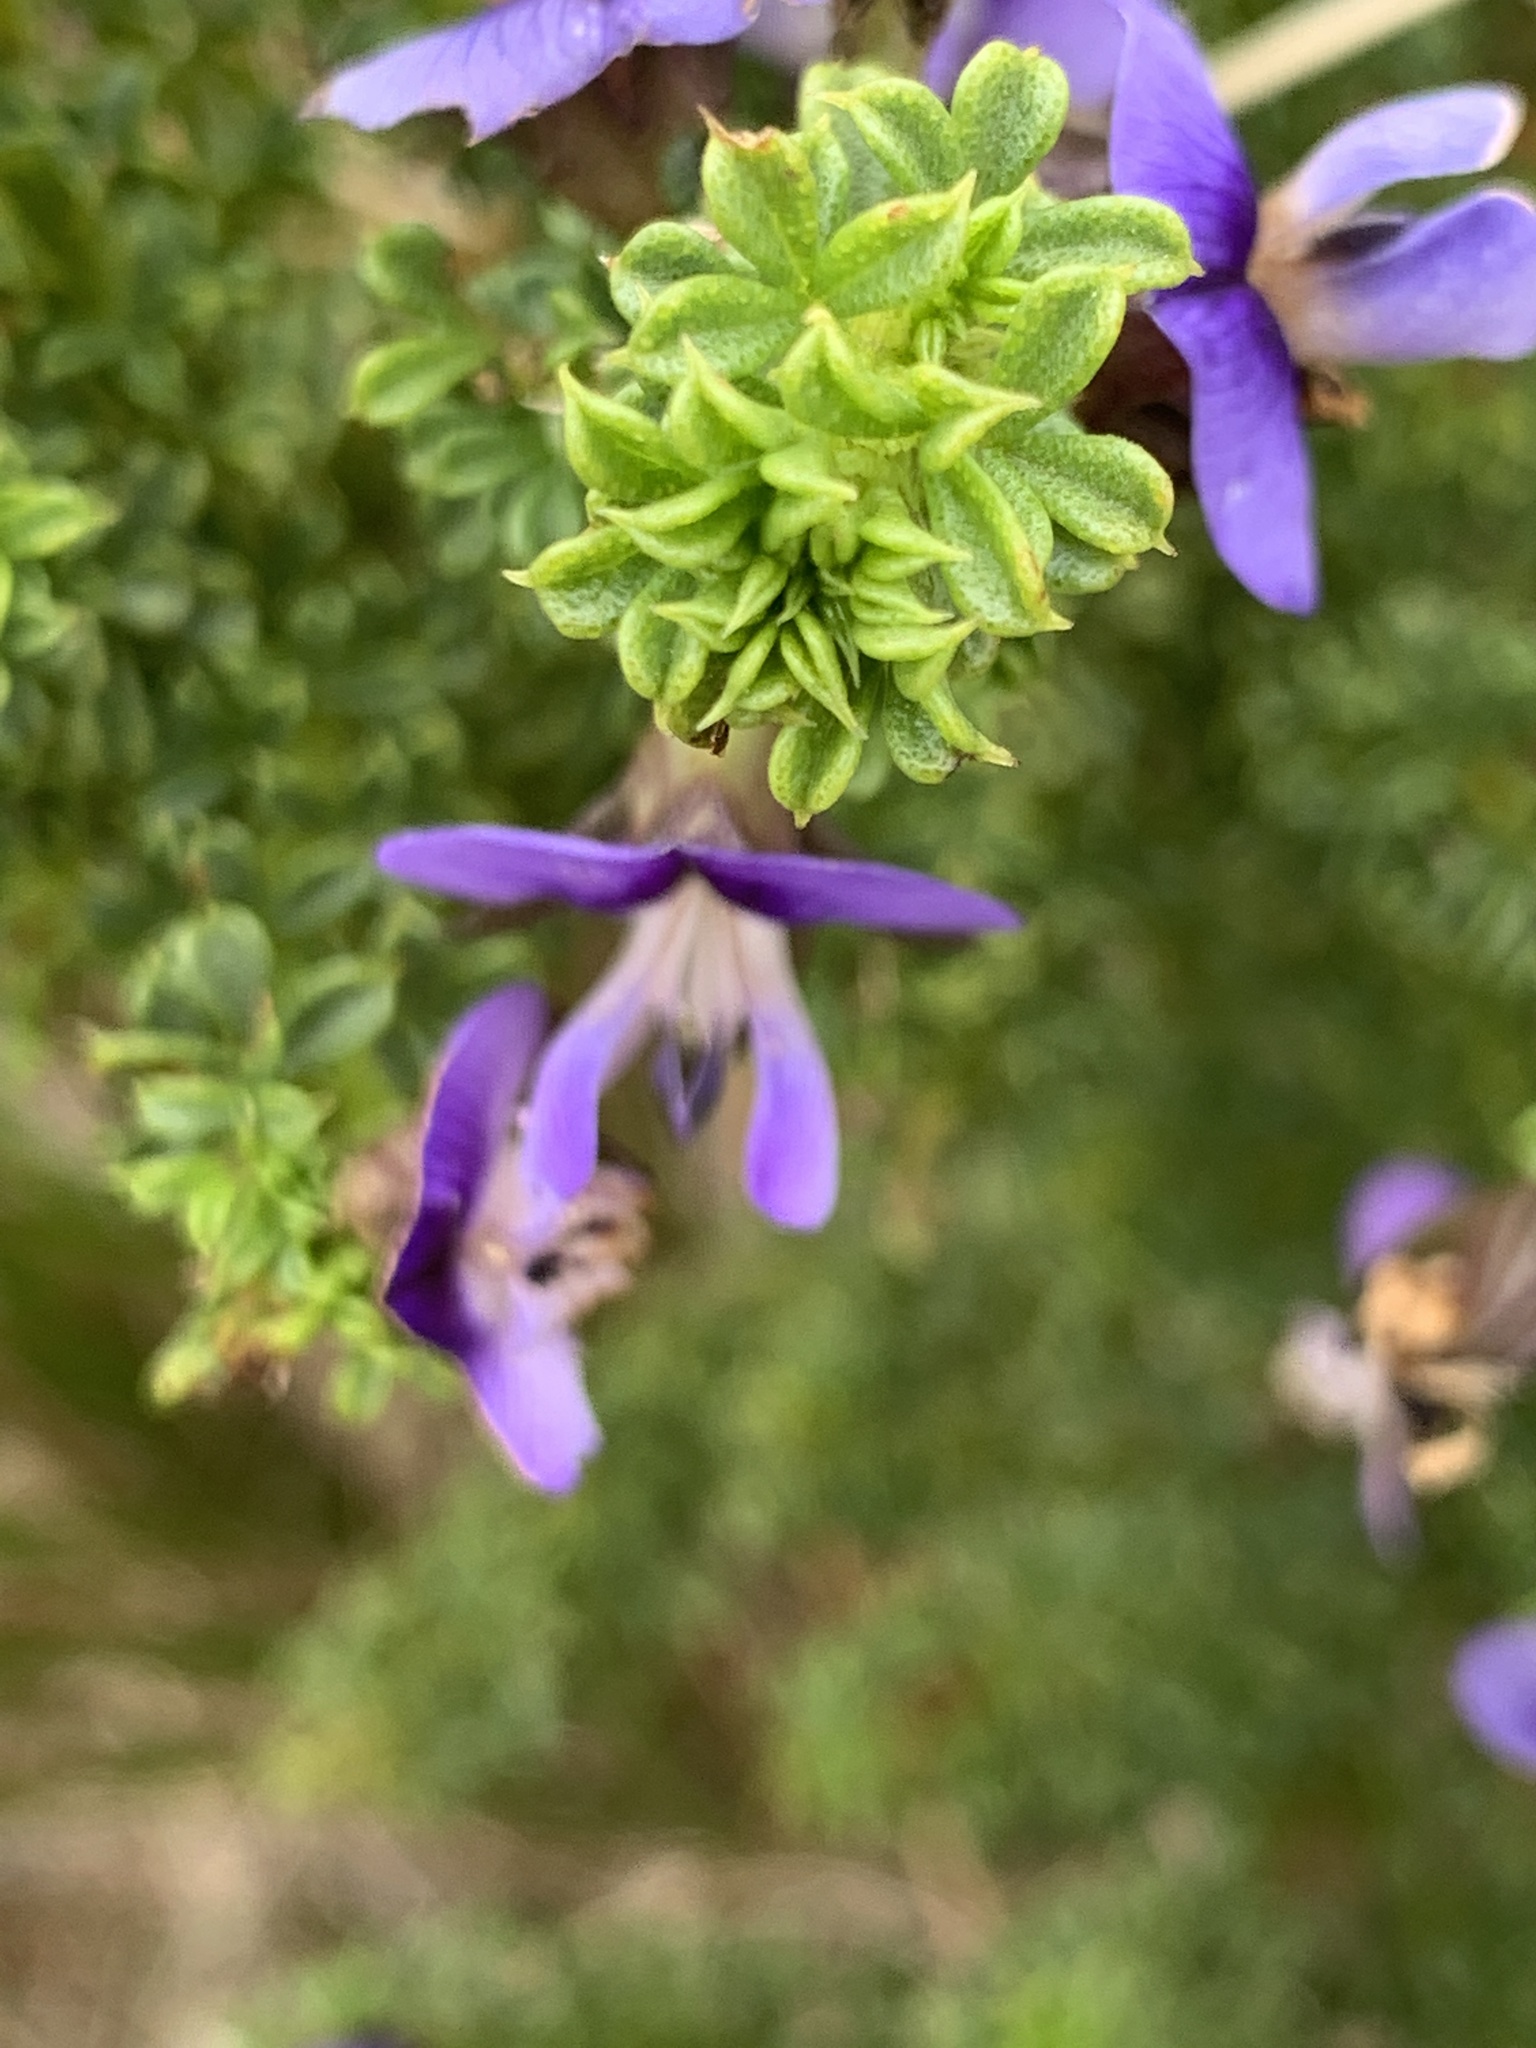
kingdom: Plantae
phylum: Tracheophyta
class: Magnoliopsida
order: Fabales
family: Fabaceae
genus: Psoralea
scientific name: Psoralea aculeata
